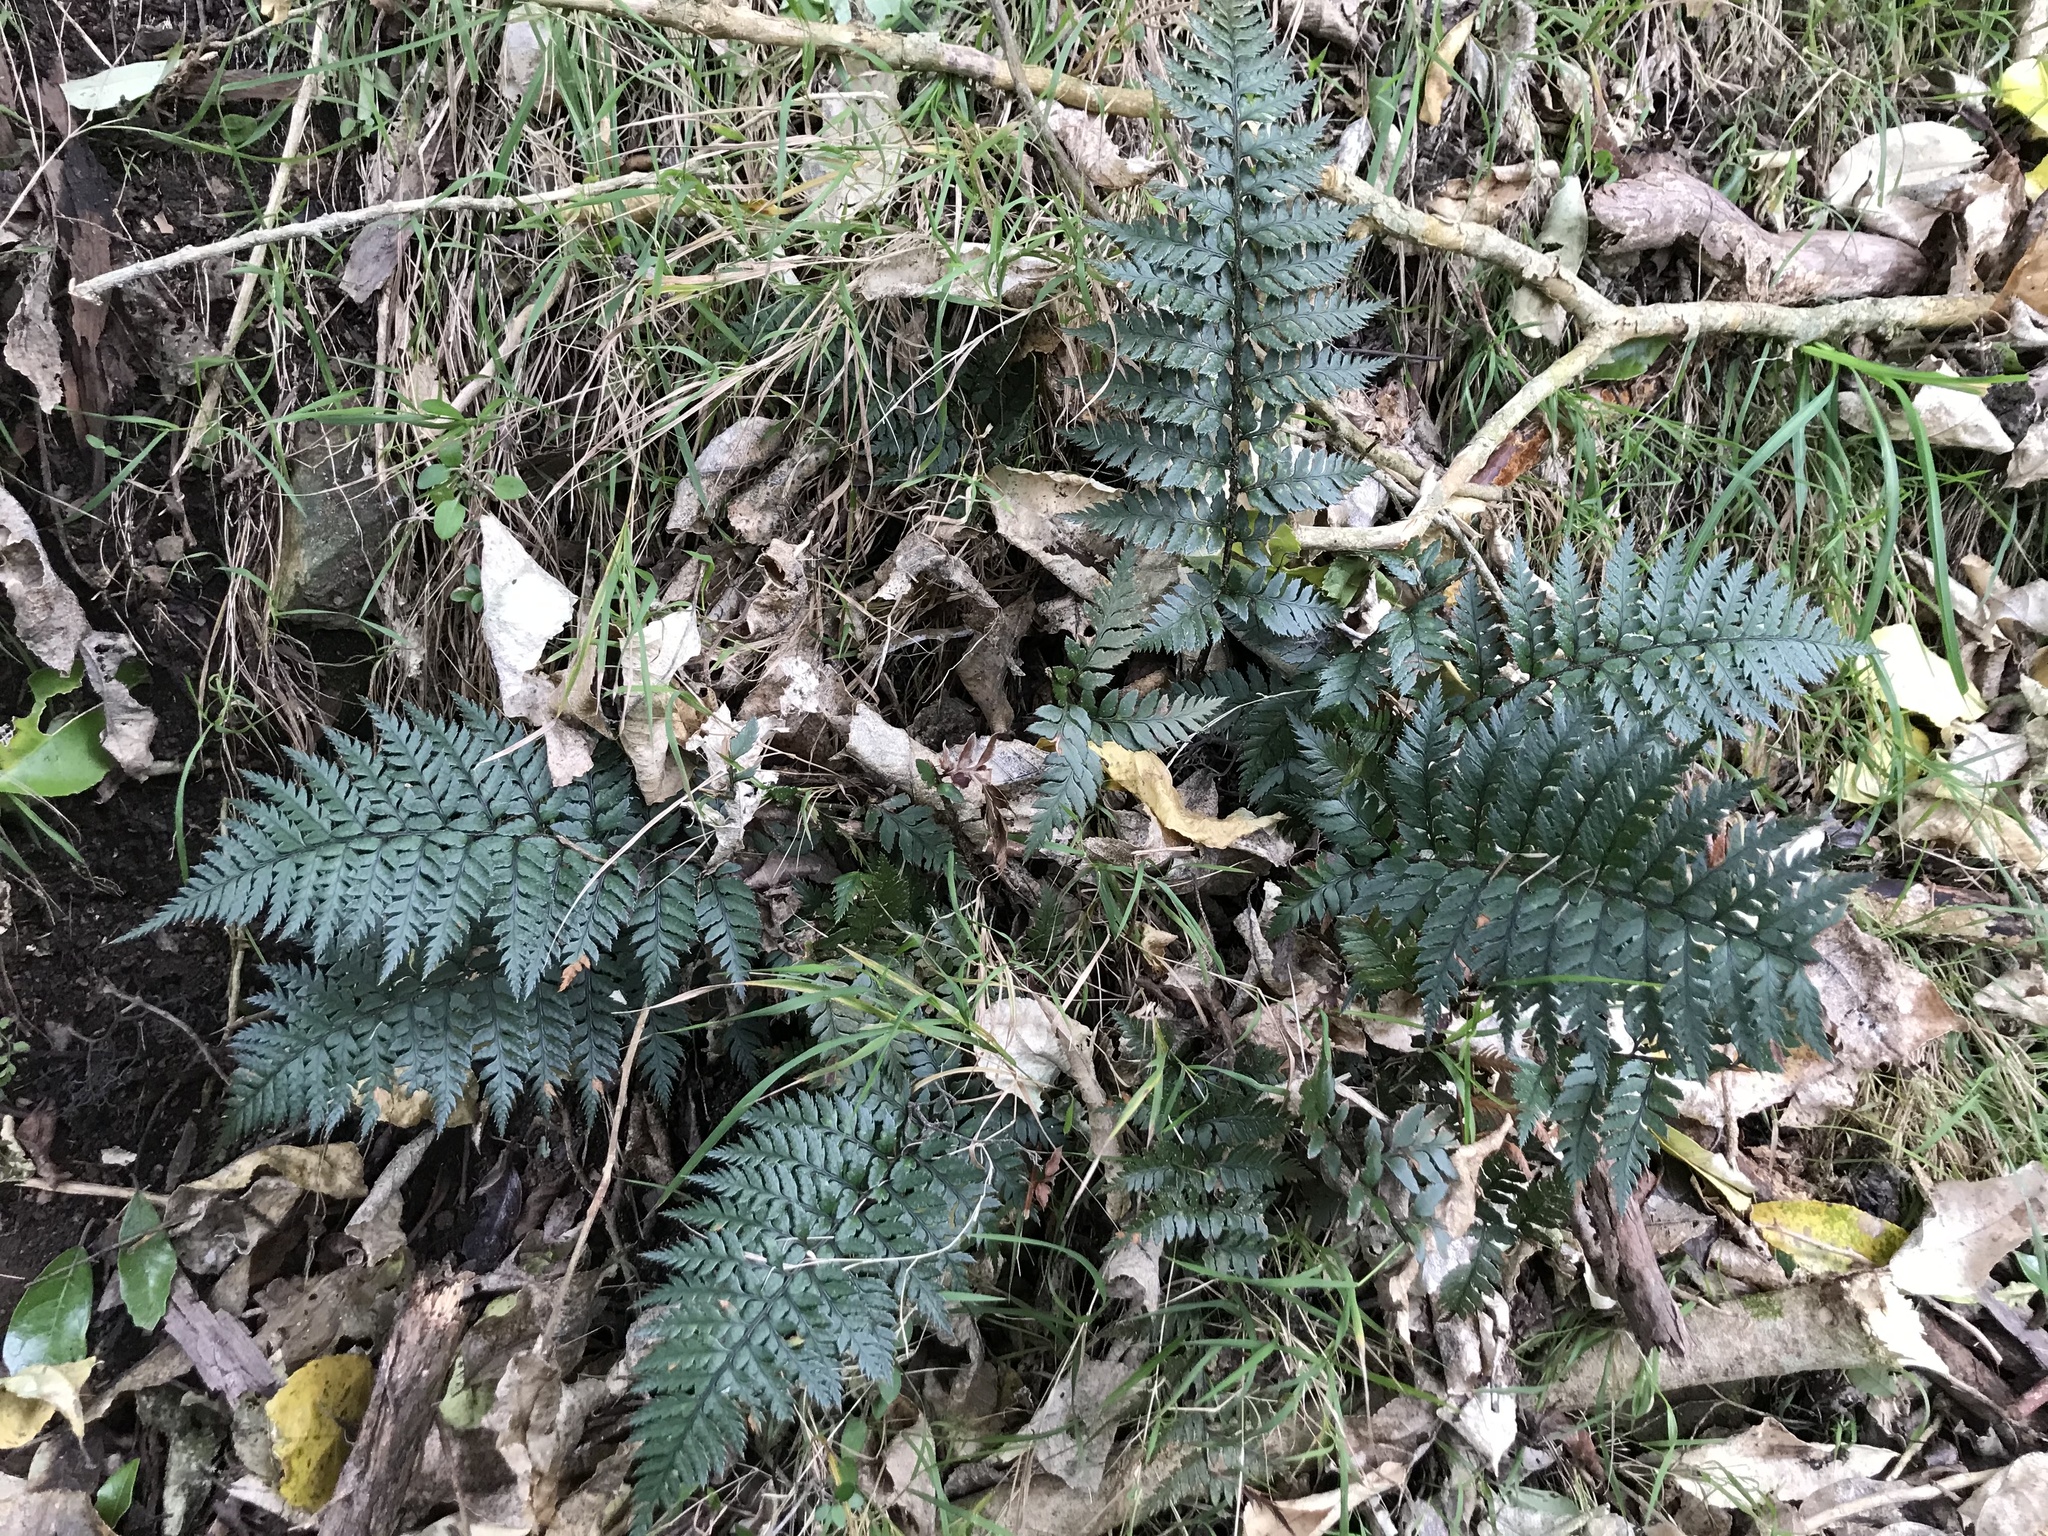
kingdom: Plantae
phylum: Tracheophyta
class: Polypodiopsida
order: Polypodiales
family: Dryopteridaceae
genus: Polystichum
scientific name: Polystichum neozelandicum
